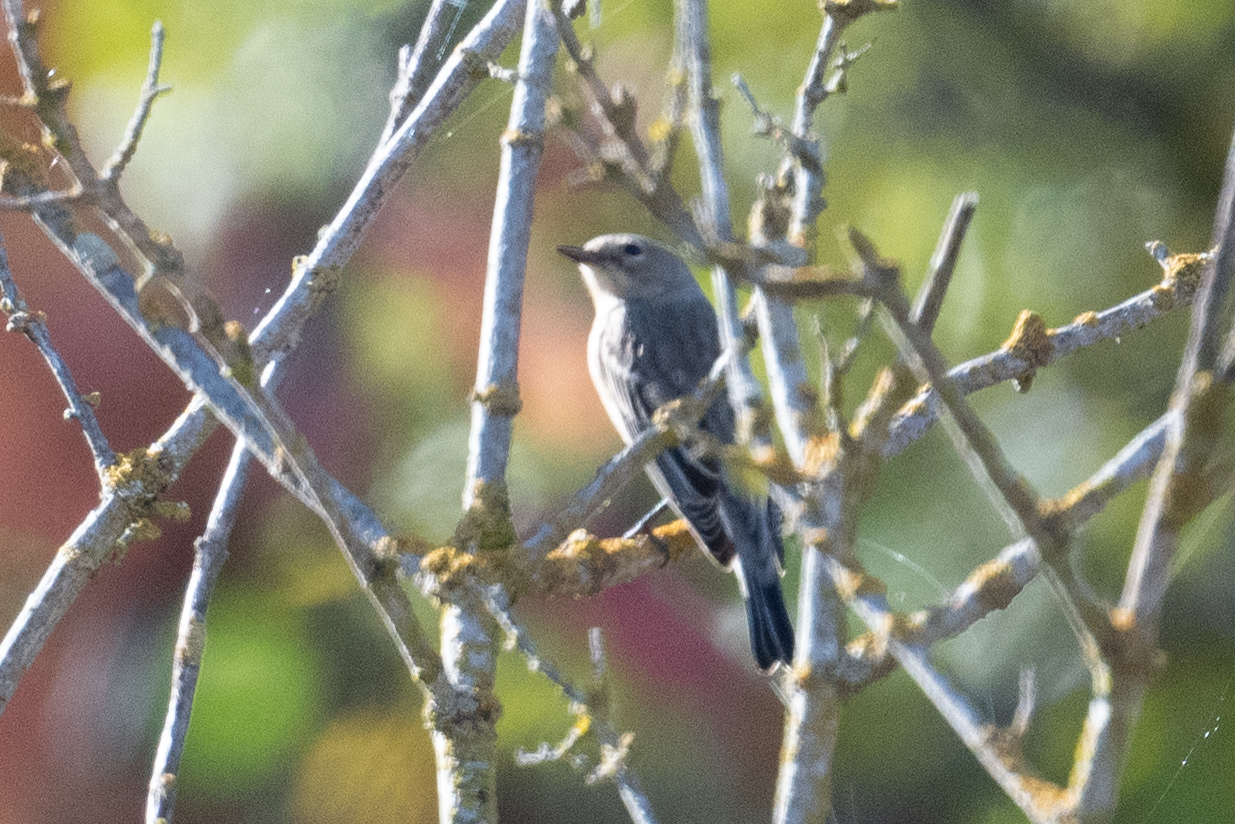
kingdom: Animalia
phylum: Chordata
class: Aves
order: Passeriformes
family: Parulidae
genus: Setophaga
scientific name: Setophaga coronata
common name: Myrtle warbler
